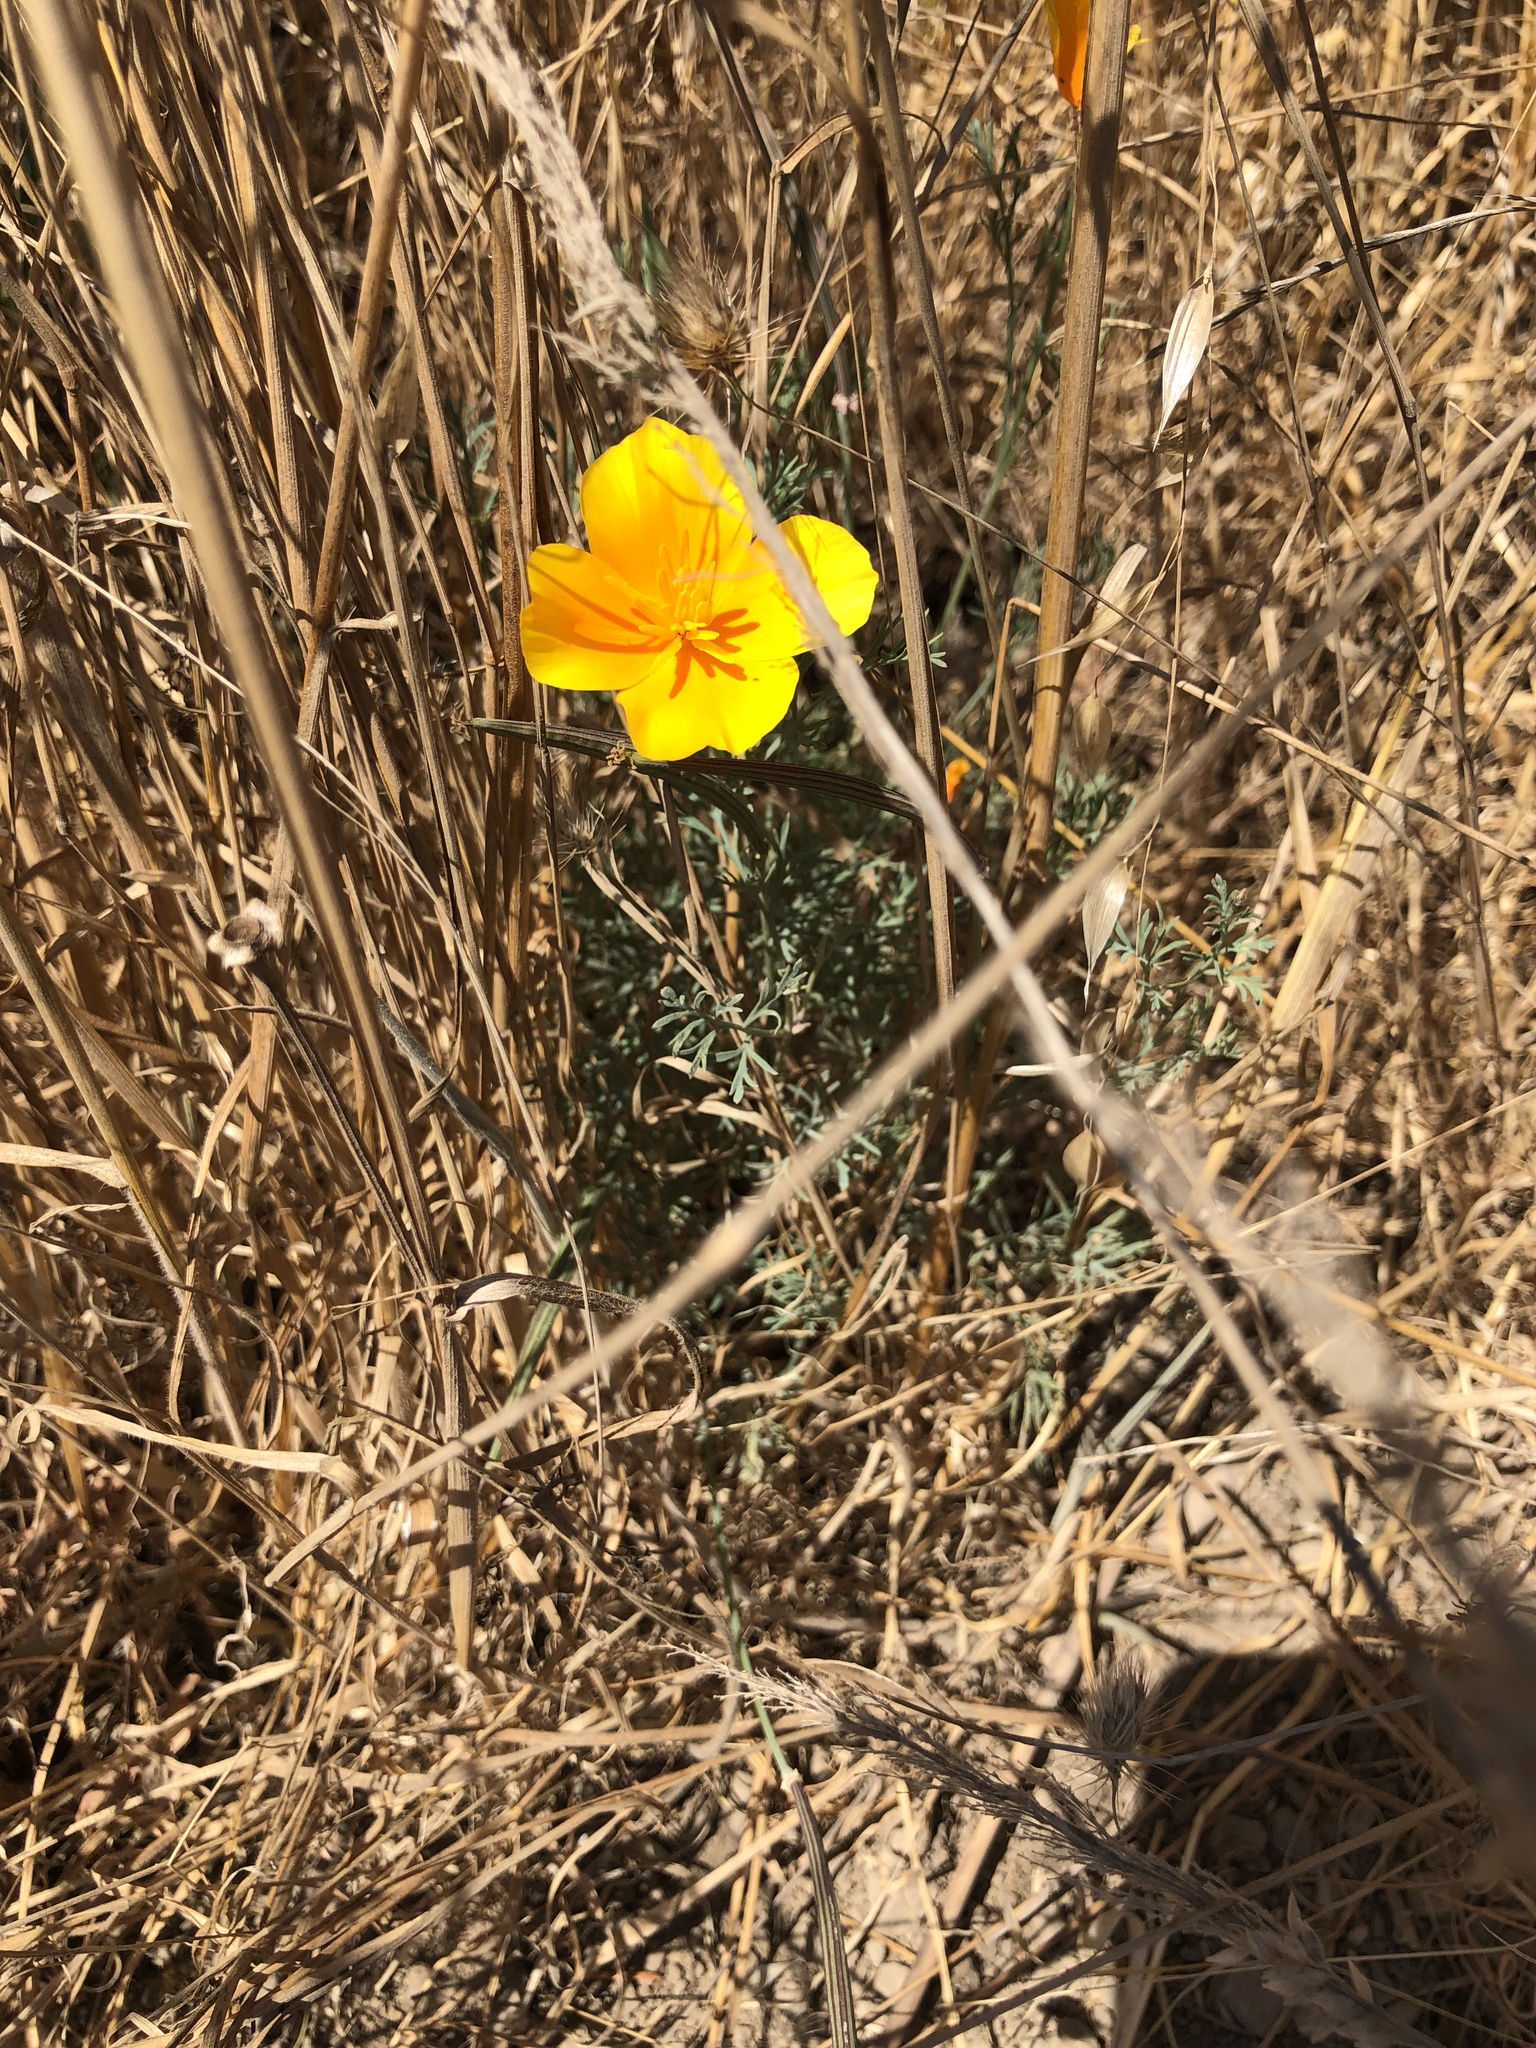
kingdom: Plantae
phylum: Tracheophyta
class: Magnoliopsida
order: Ranunculales
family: Papaveraceae
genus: Eschscholzia
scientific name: Eschscholzia californica
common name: California poppy
